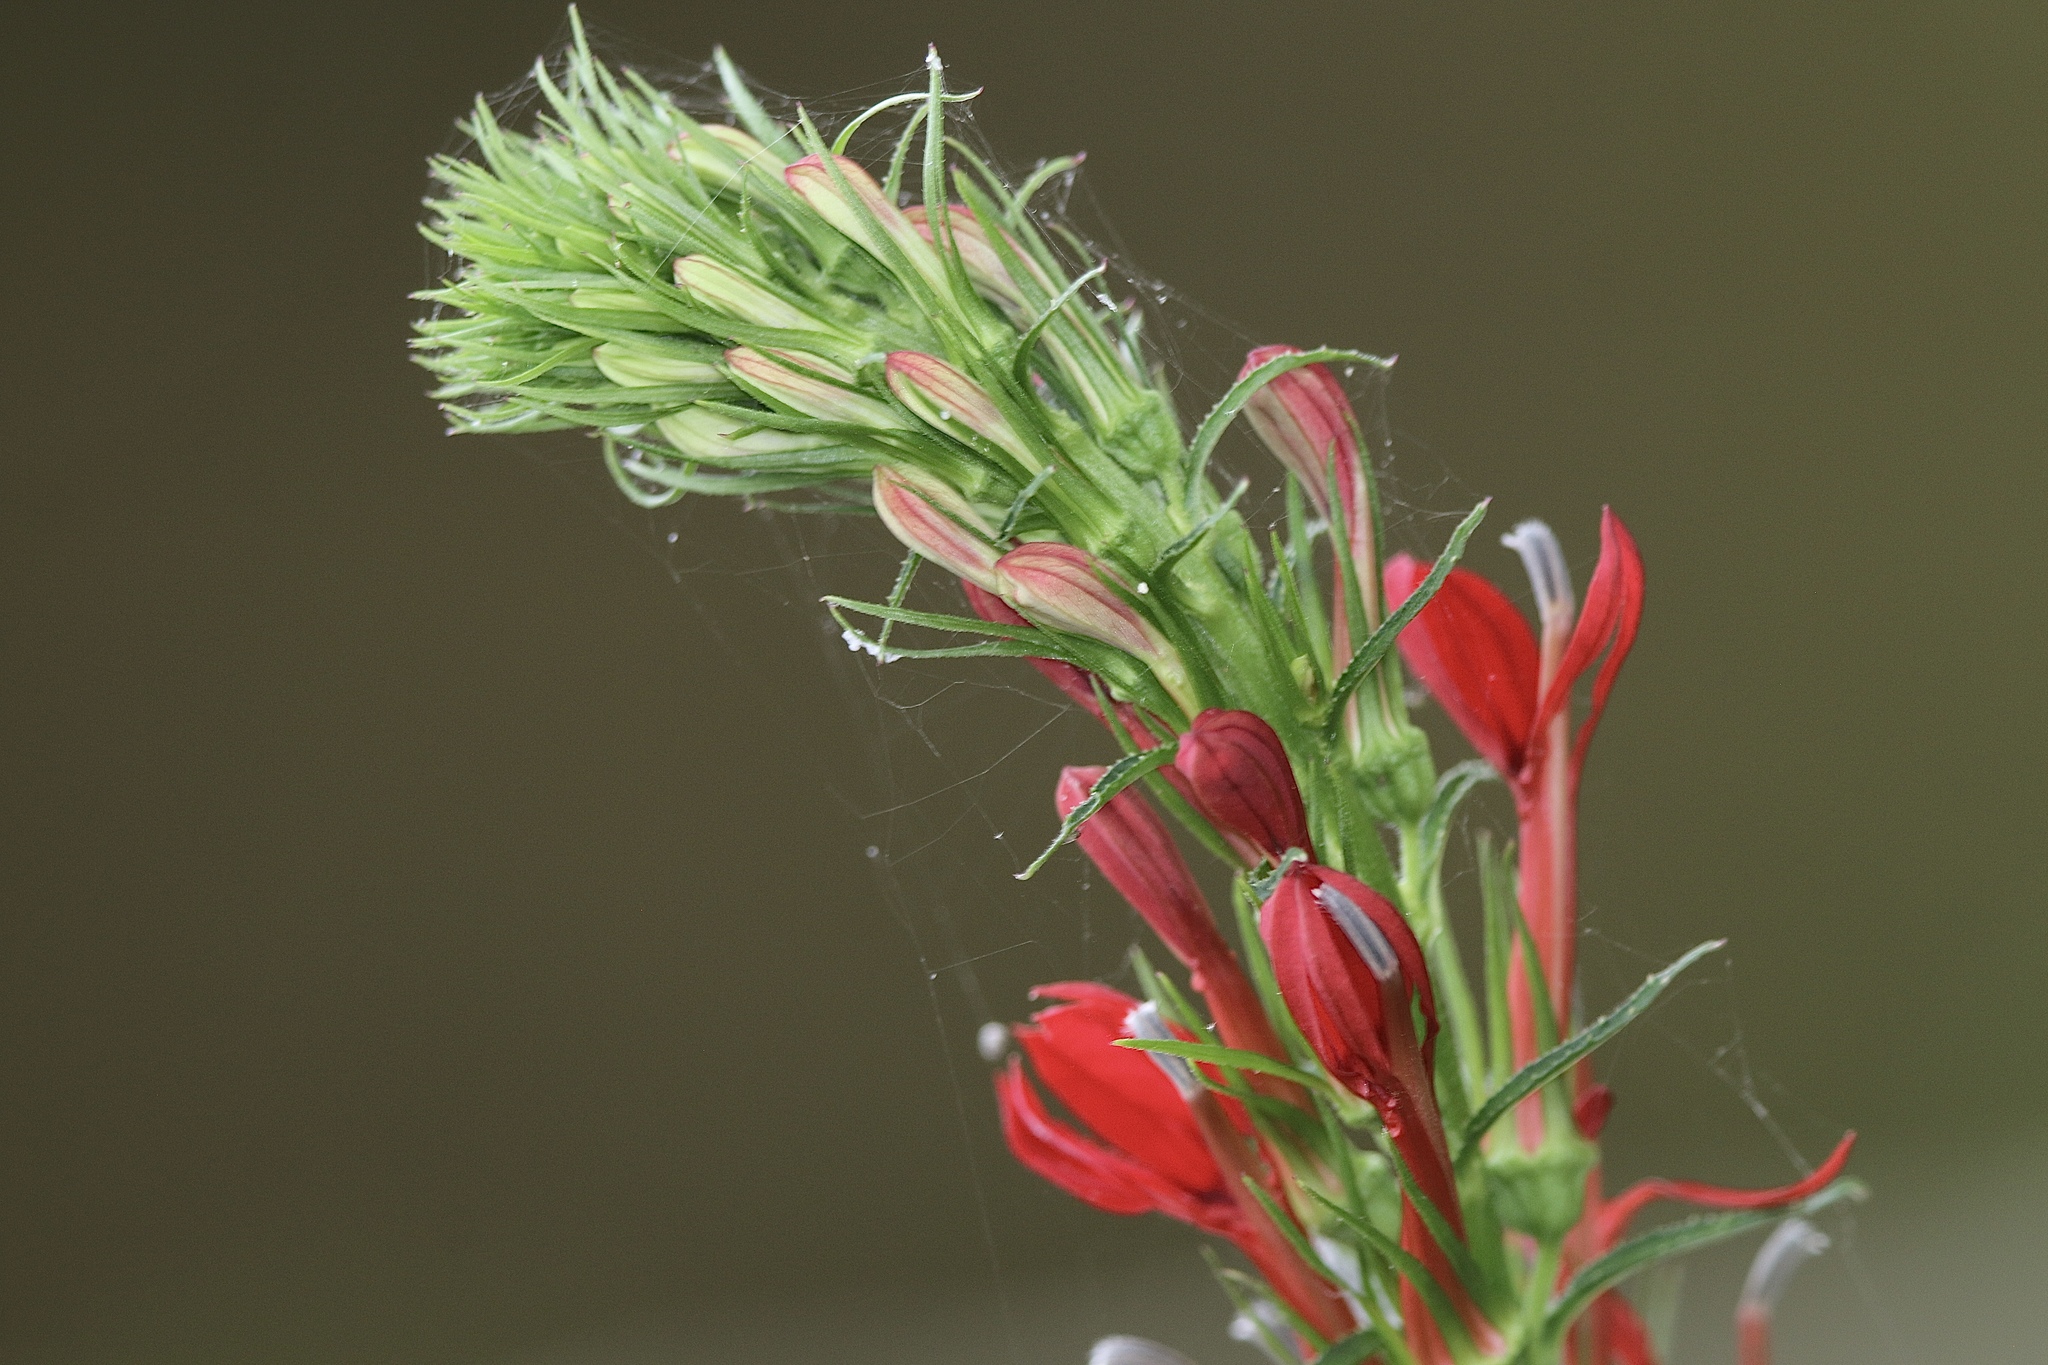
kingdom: Plantae
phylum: Tracheophyta
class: Magnoliopsida
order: Asterales
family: Campanulaceae
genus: Lobelia
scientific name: Lobelia cardinalis
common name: Cardinal flower
